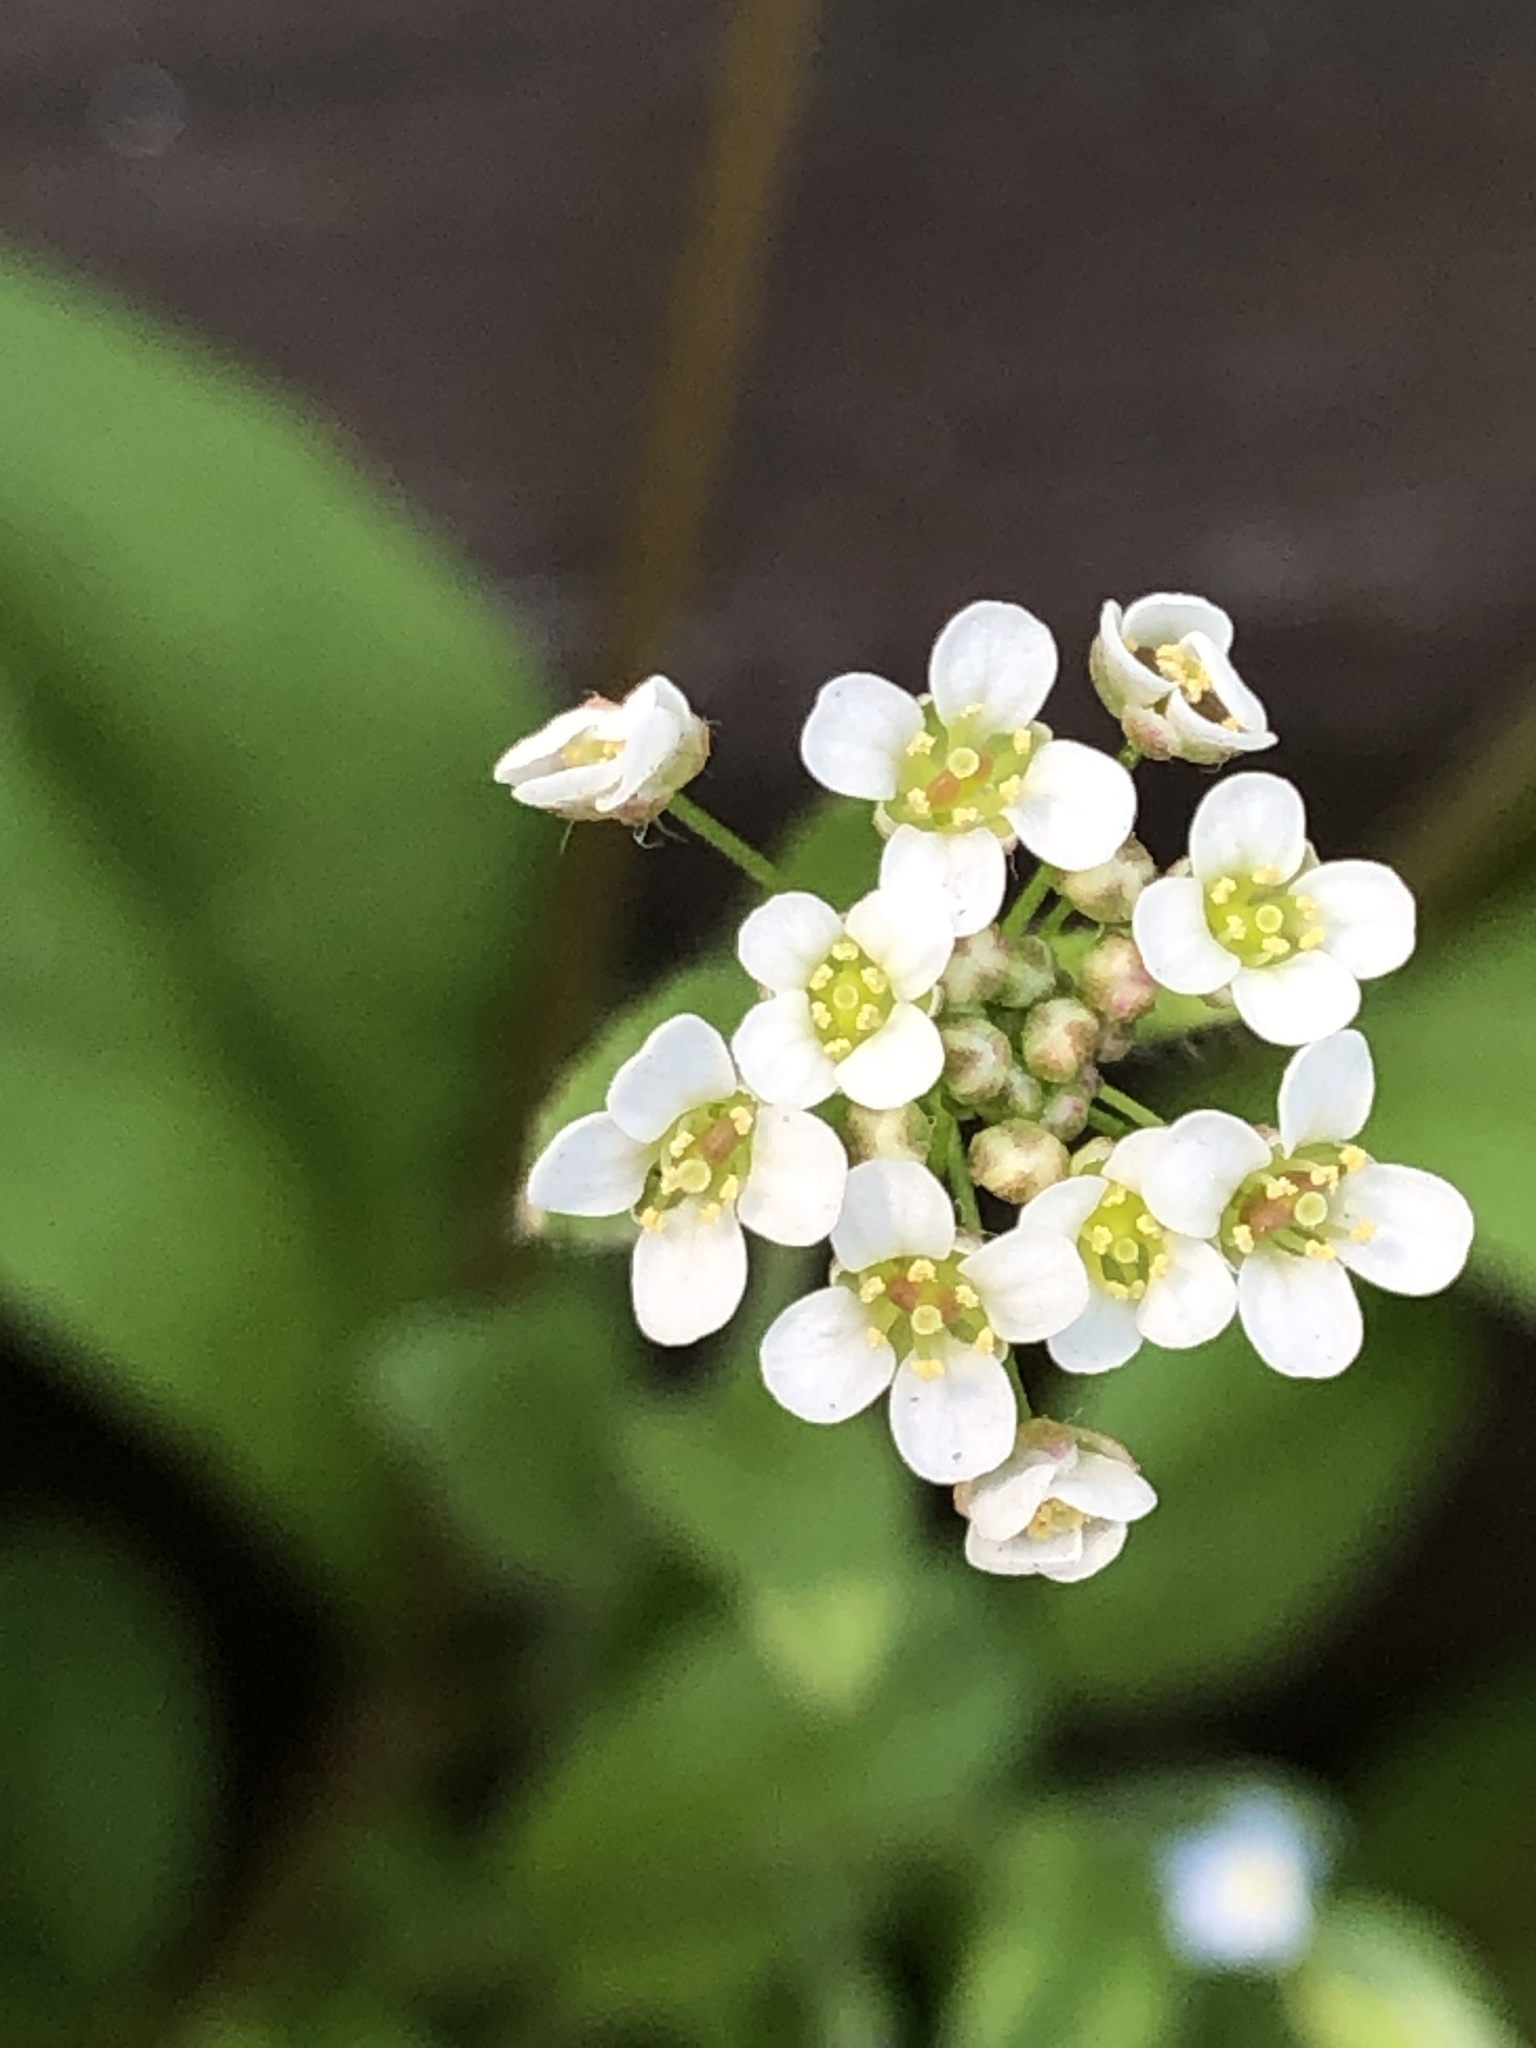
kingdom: Plantae
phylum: Tracheophyta
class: Magnoliopsida
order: Brassicales
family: Brassicaceae
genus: Capsella
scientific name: Capsella bursa-pastoris
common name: Shepherd's purse
